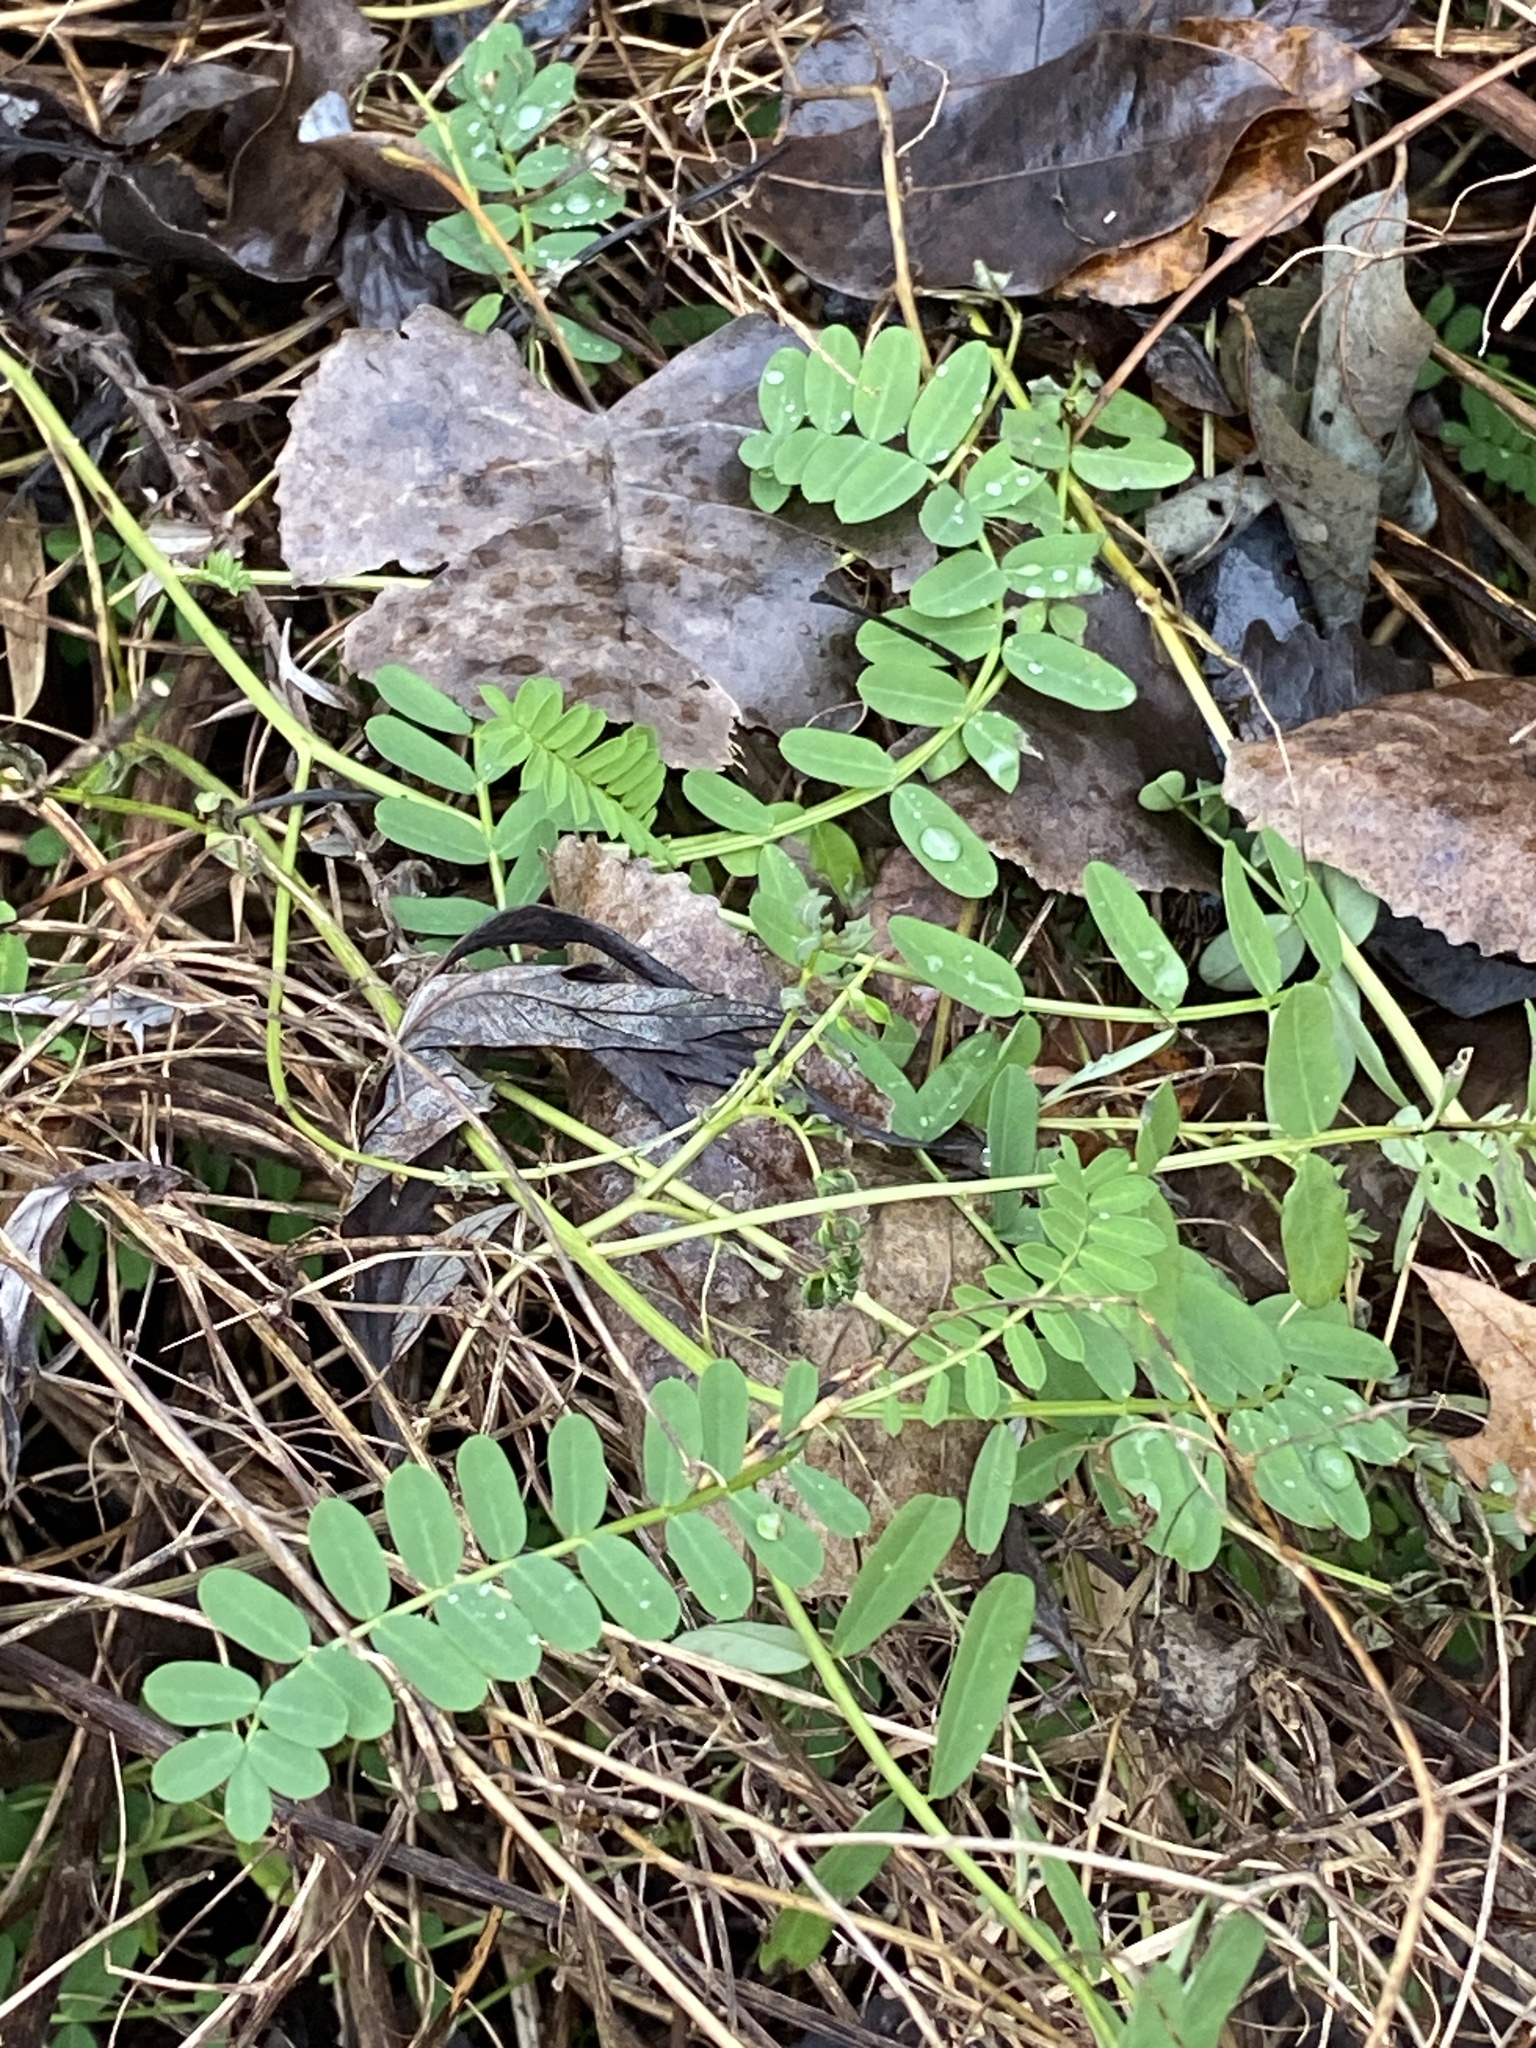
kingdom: Plantae
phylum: Tracheophyta
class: Magnoliopsida
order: Fabales
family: Fabaceae
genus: Coronilla
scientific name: Coronilla varia
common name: Crownvetch
